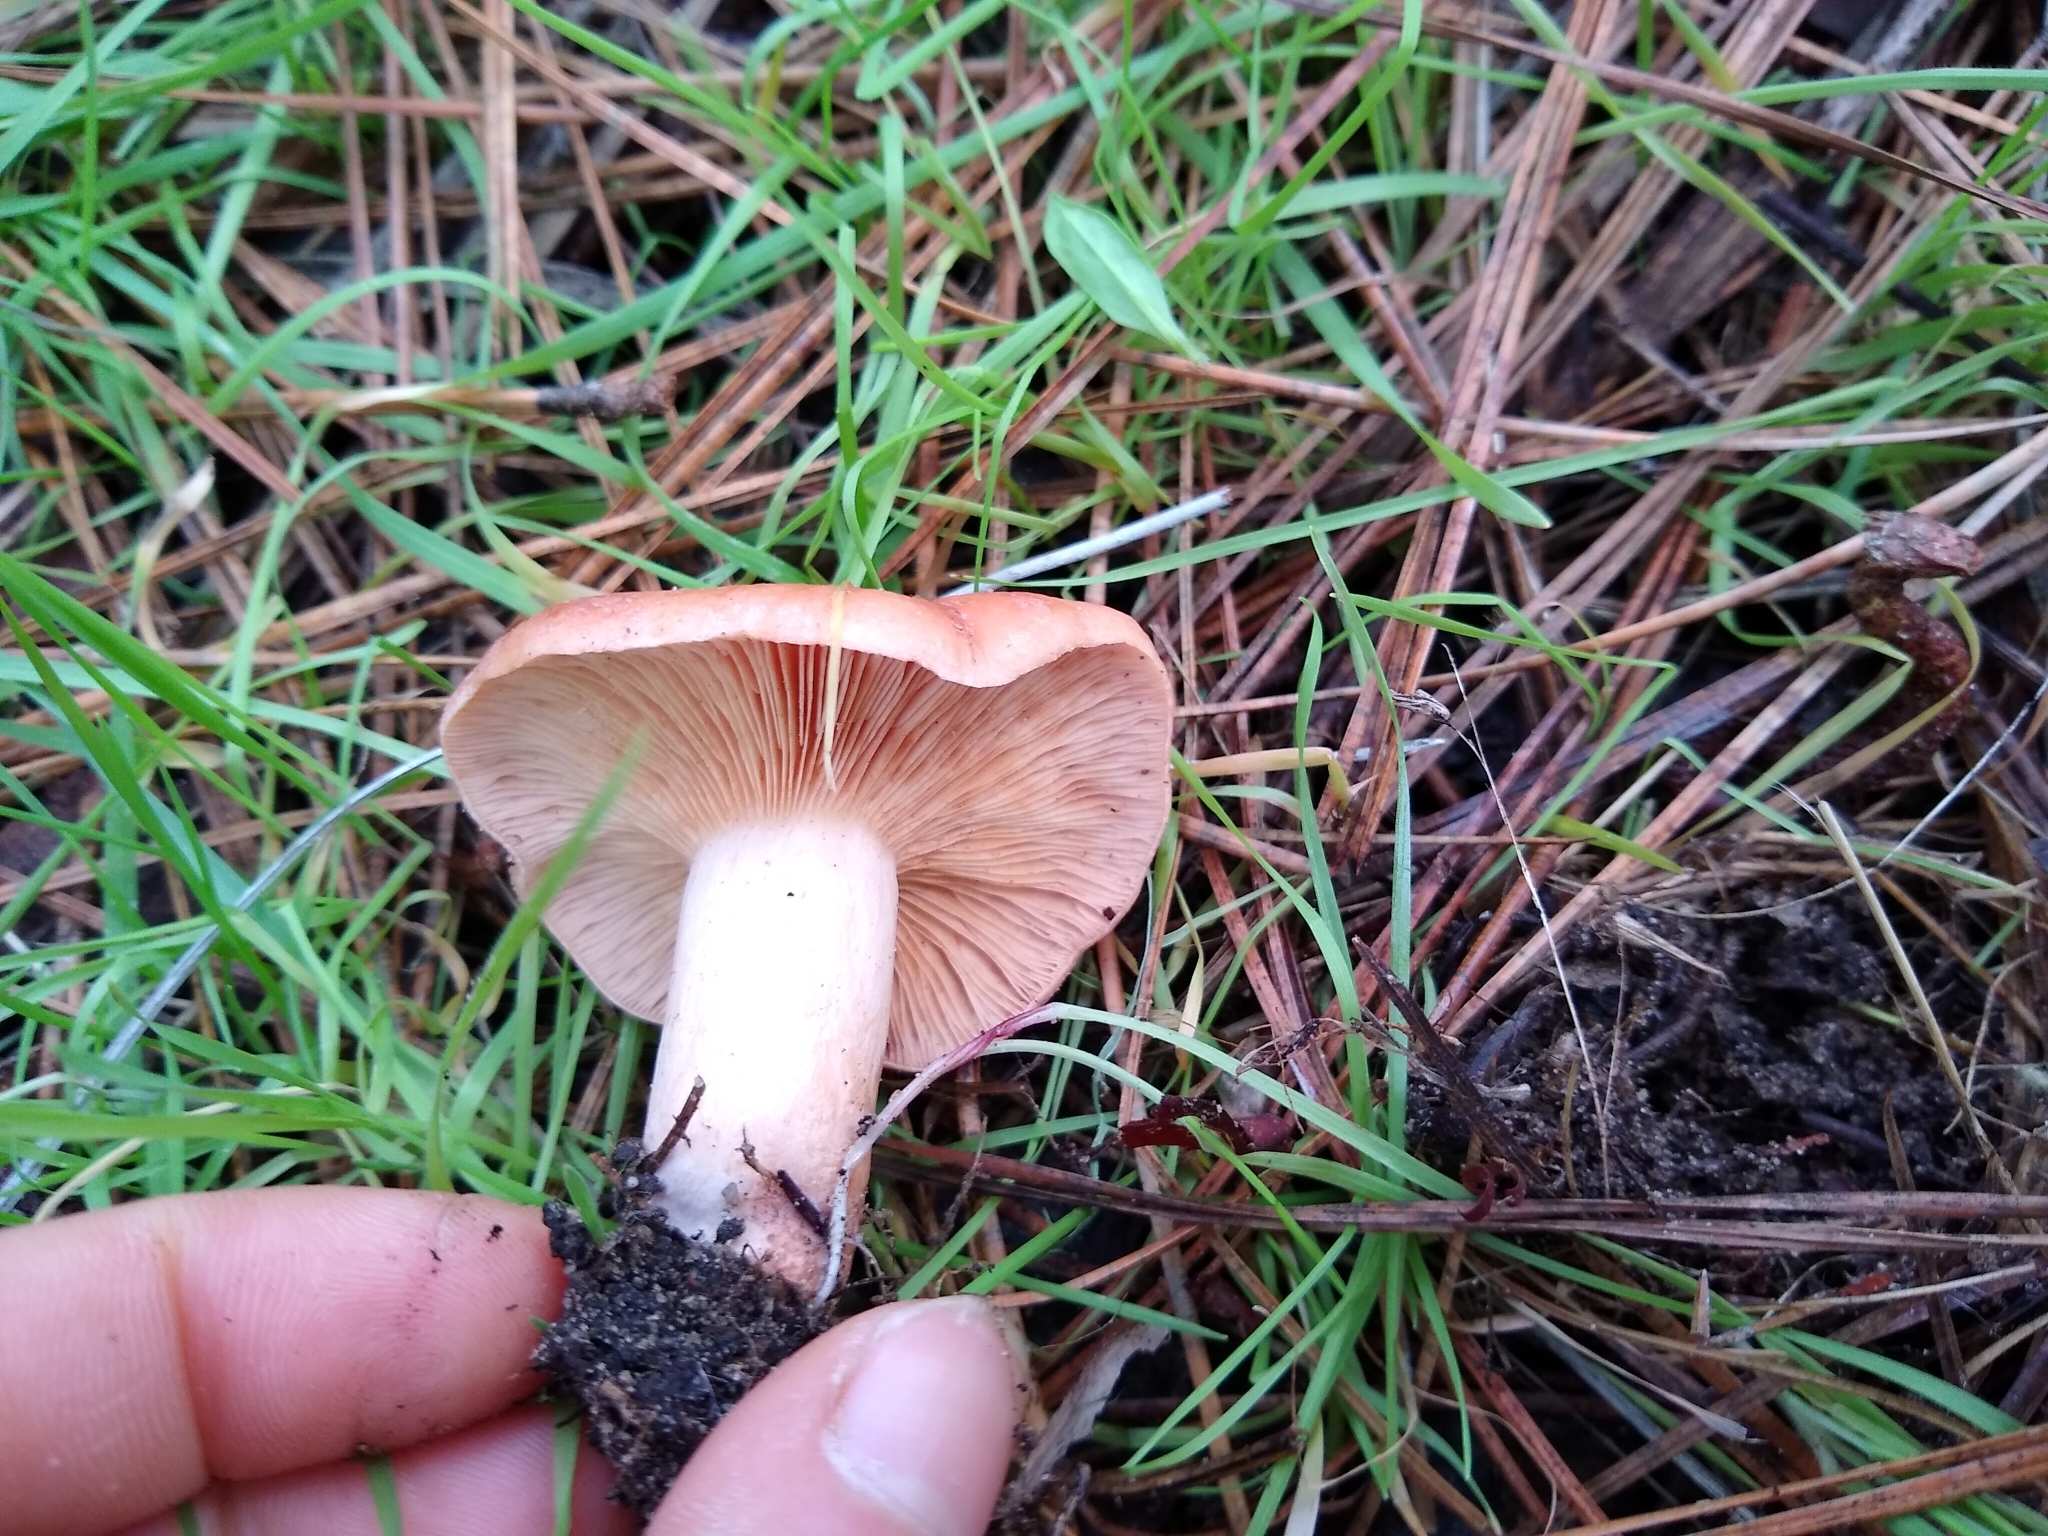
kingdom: Fungi
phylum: Basidiomycota
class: Agaricomycetes
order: Russulales
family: Russulaceae
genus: Lactarius
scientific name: Lactarius xanthogalactus
